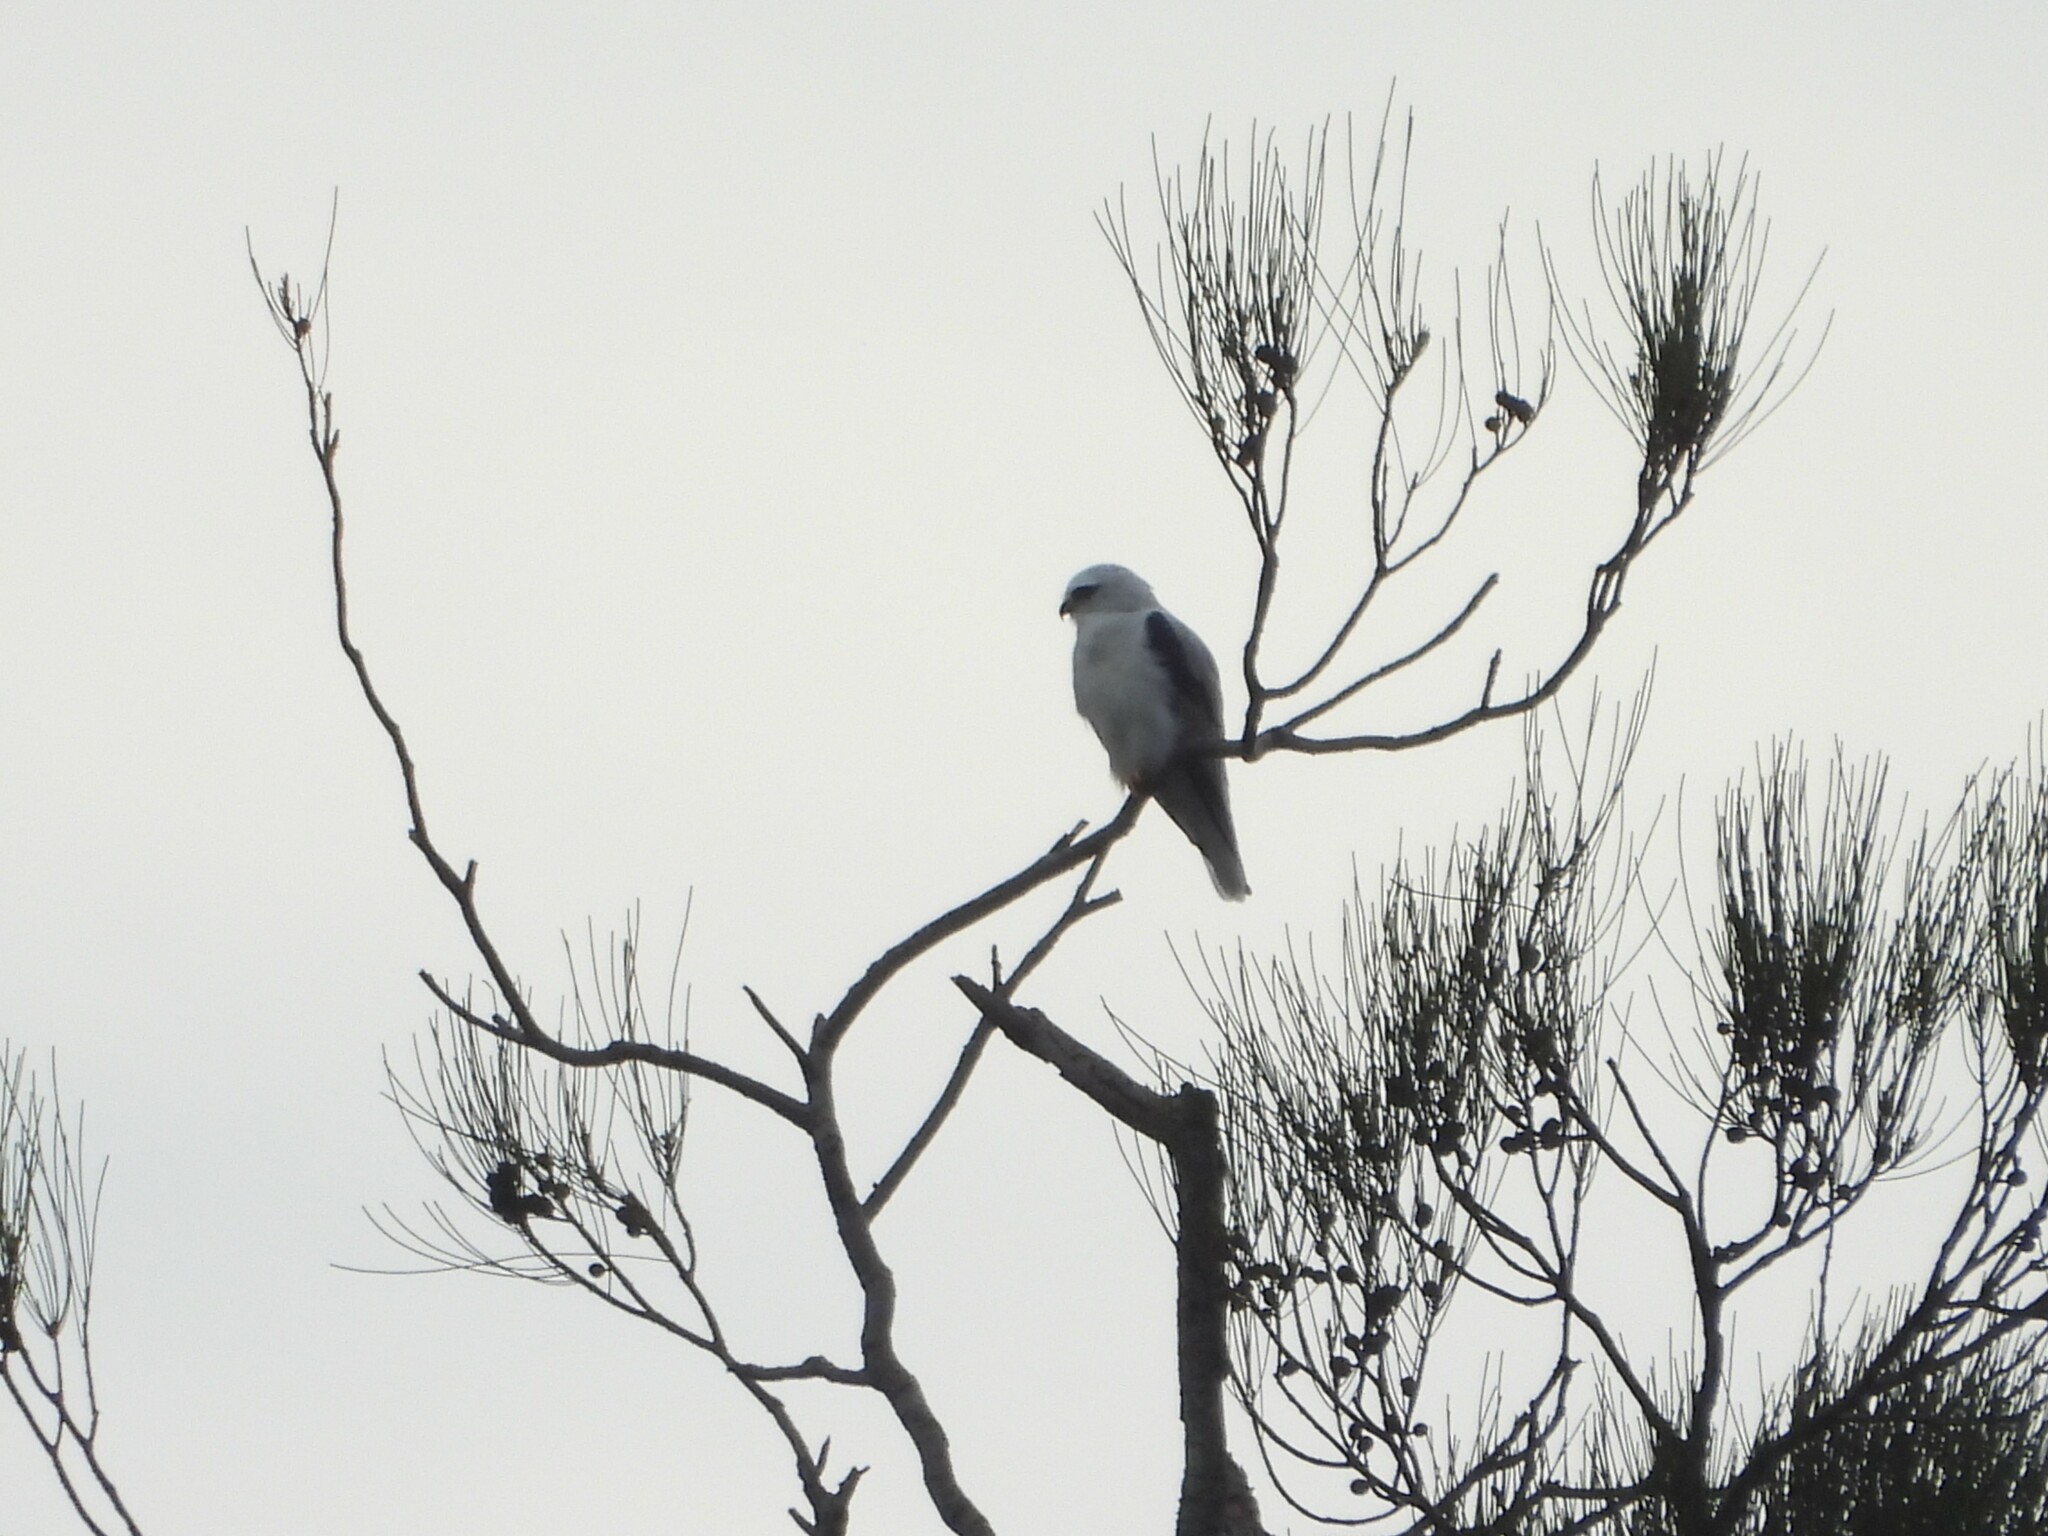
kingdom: Animalia
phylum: Chordata
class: Aves
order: Accipitriformes
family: Accipitridae
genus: Elanus
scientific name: Elanus axillaris
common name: Black-shouldered kite
